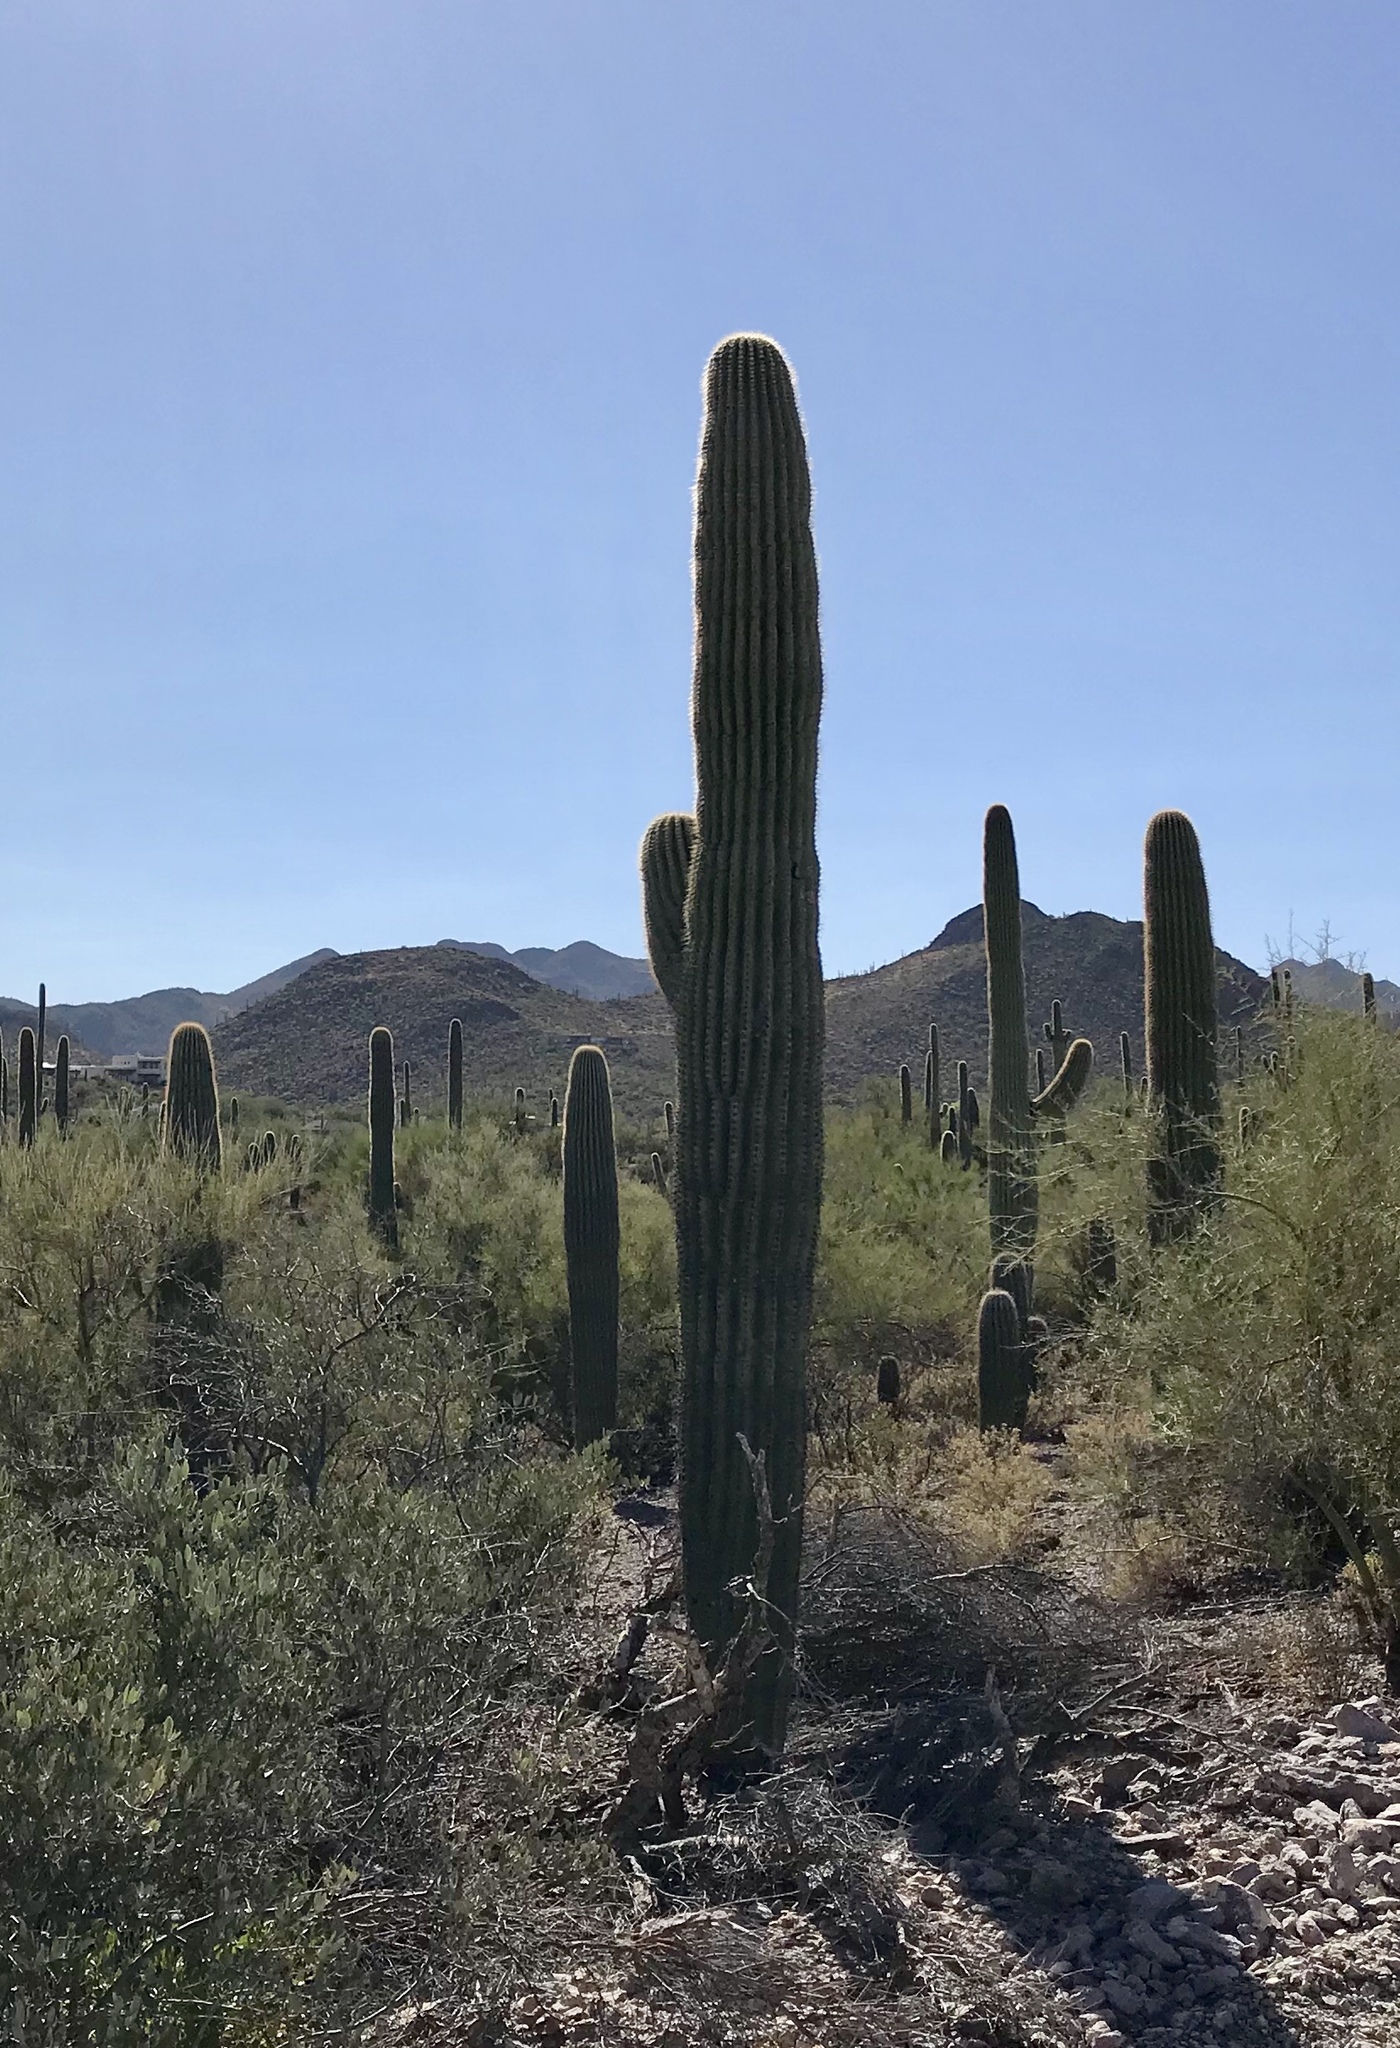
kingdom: Plantae
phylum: Tracheophyta
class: Magnoliopsida
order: Caryophyllales
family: Cactaceae
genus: Carnegiea
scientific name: Carnegiea gigantea
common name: Saguaro
